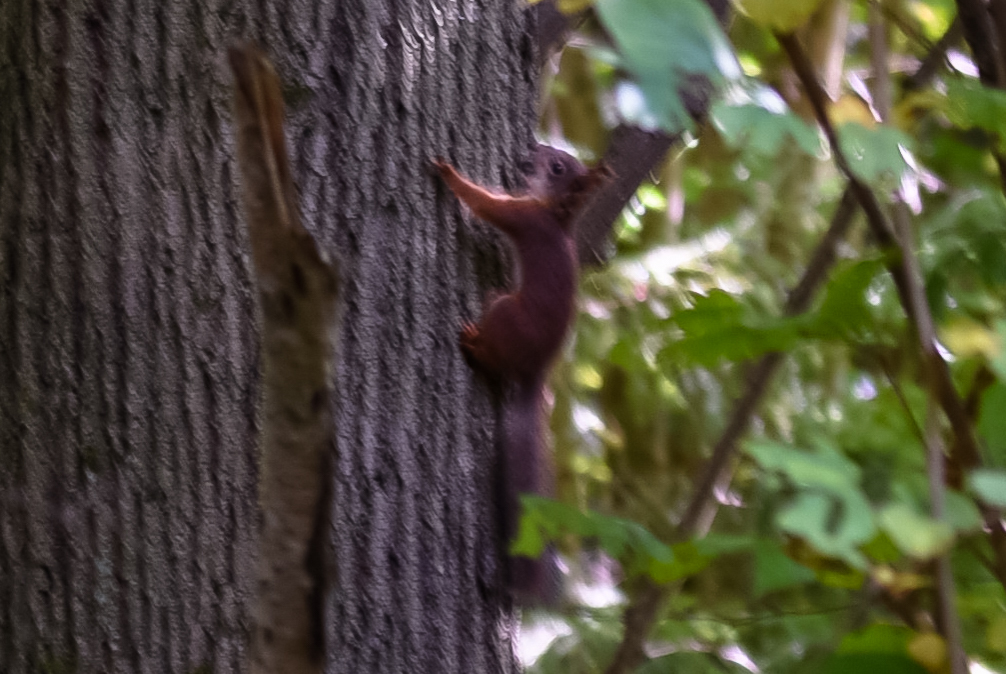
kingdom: Animalia
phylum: Chordata
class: Mammalia
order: Rodentia
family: Sciuridae
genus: Sciurus
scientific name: Sciurus vulgaris
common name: Eurasian red squirrel
